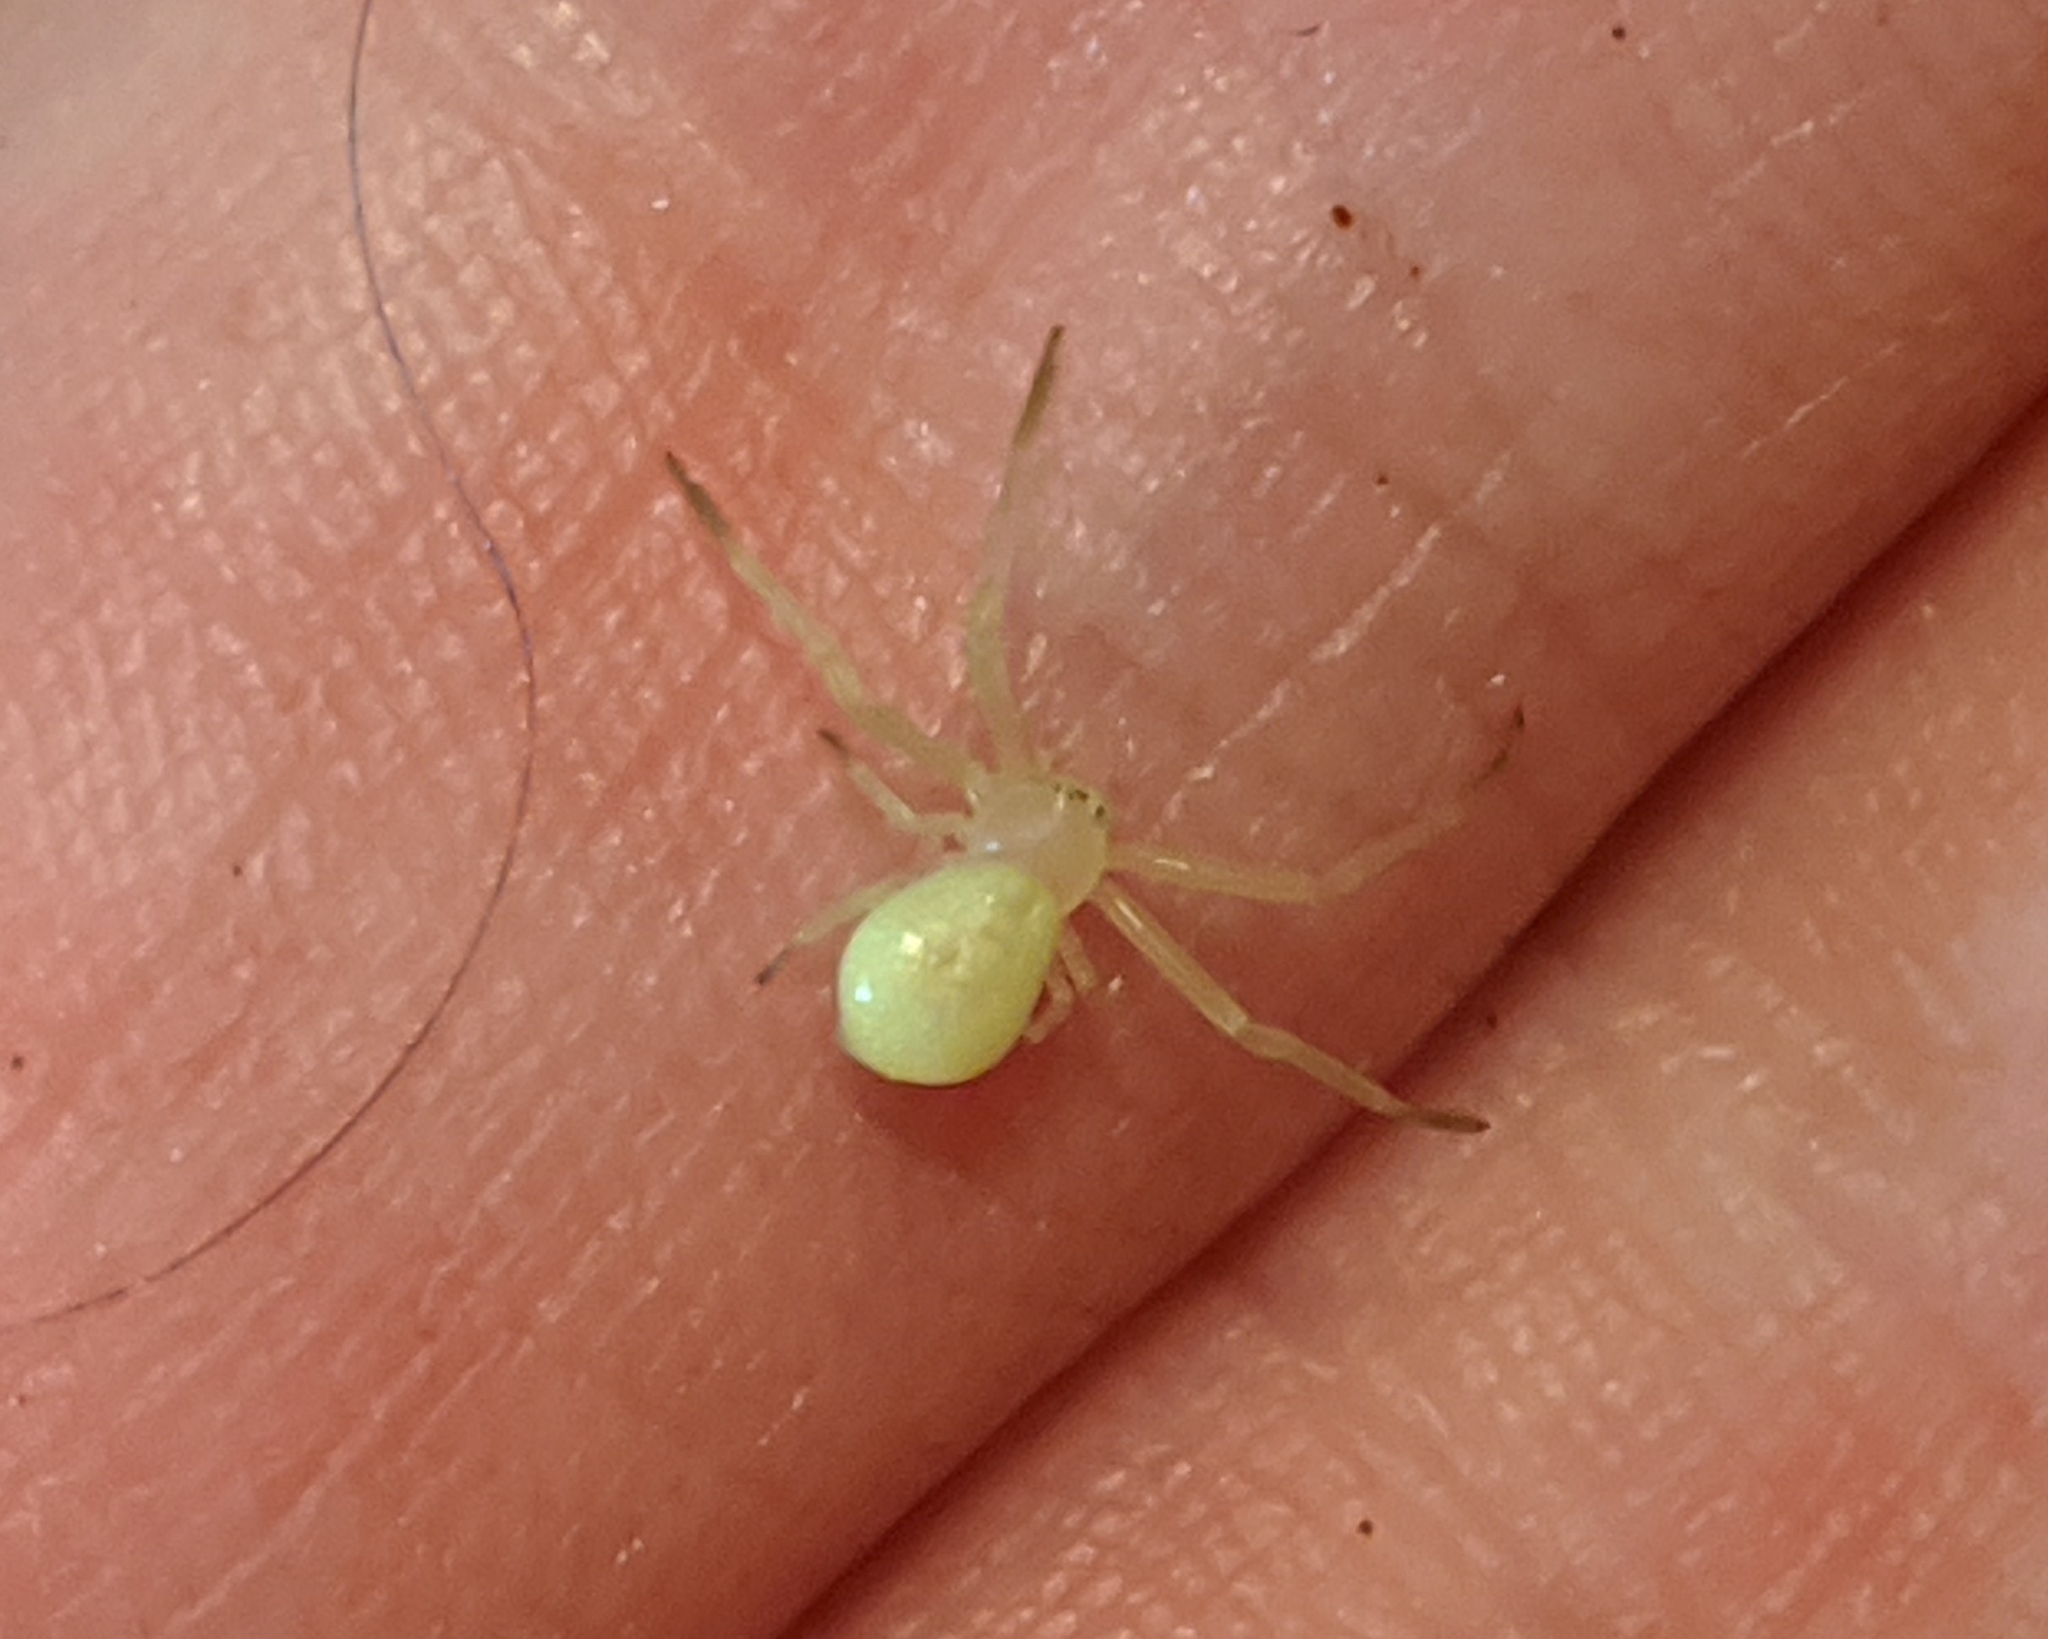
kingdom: Animalia
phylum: Arthropoda
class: Arachnida
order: Araneae
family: Thomisidae
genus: Misumessus
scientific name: Misumessus oblongus
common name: American green crab spider
